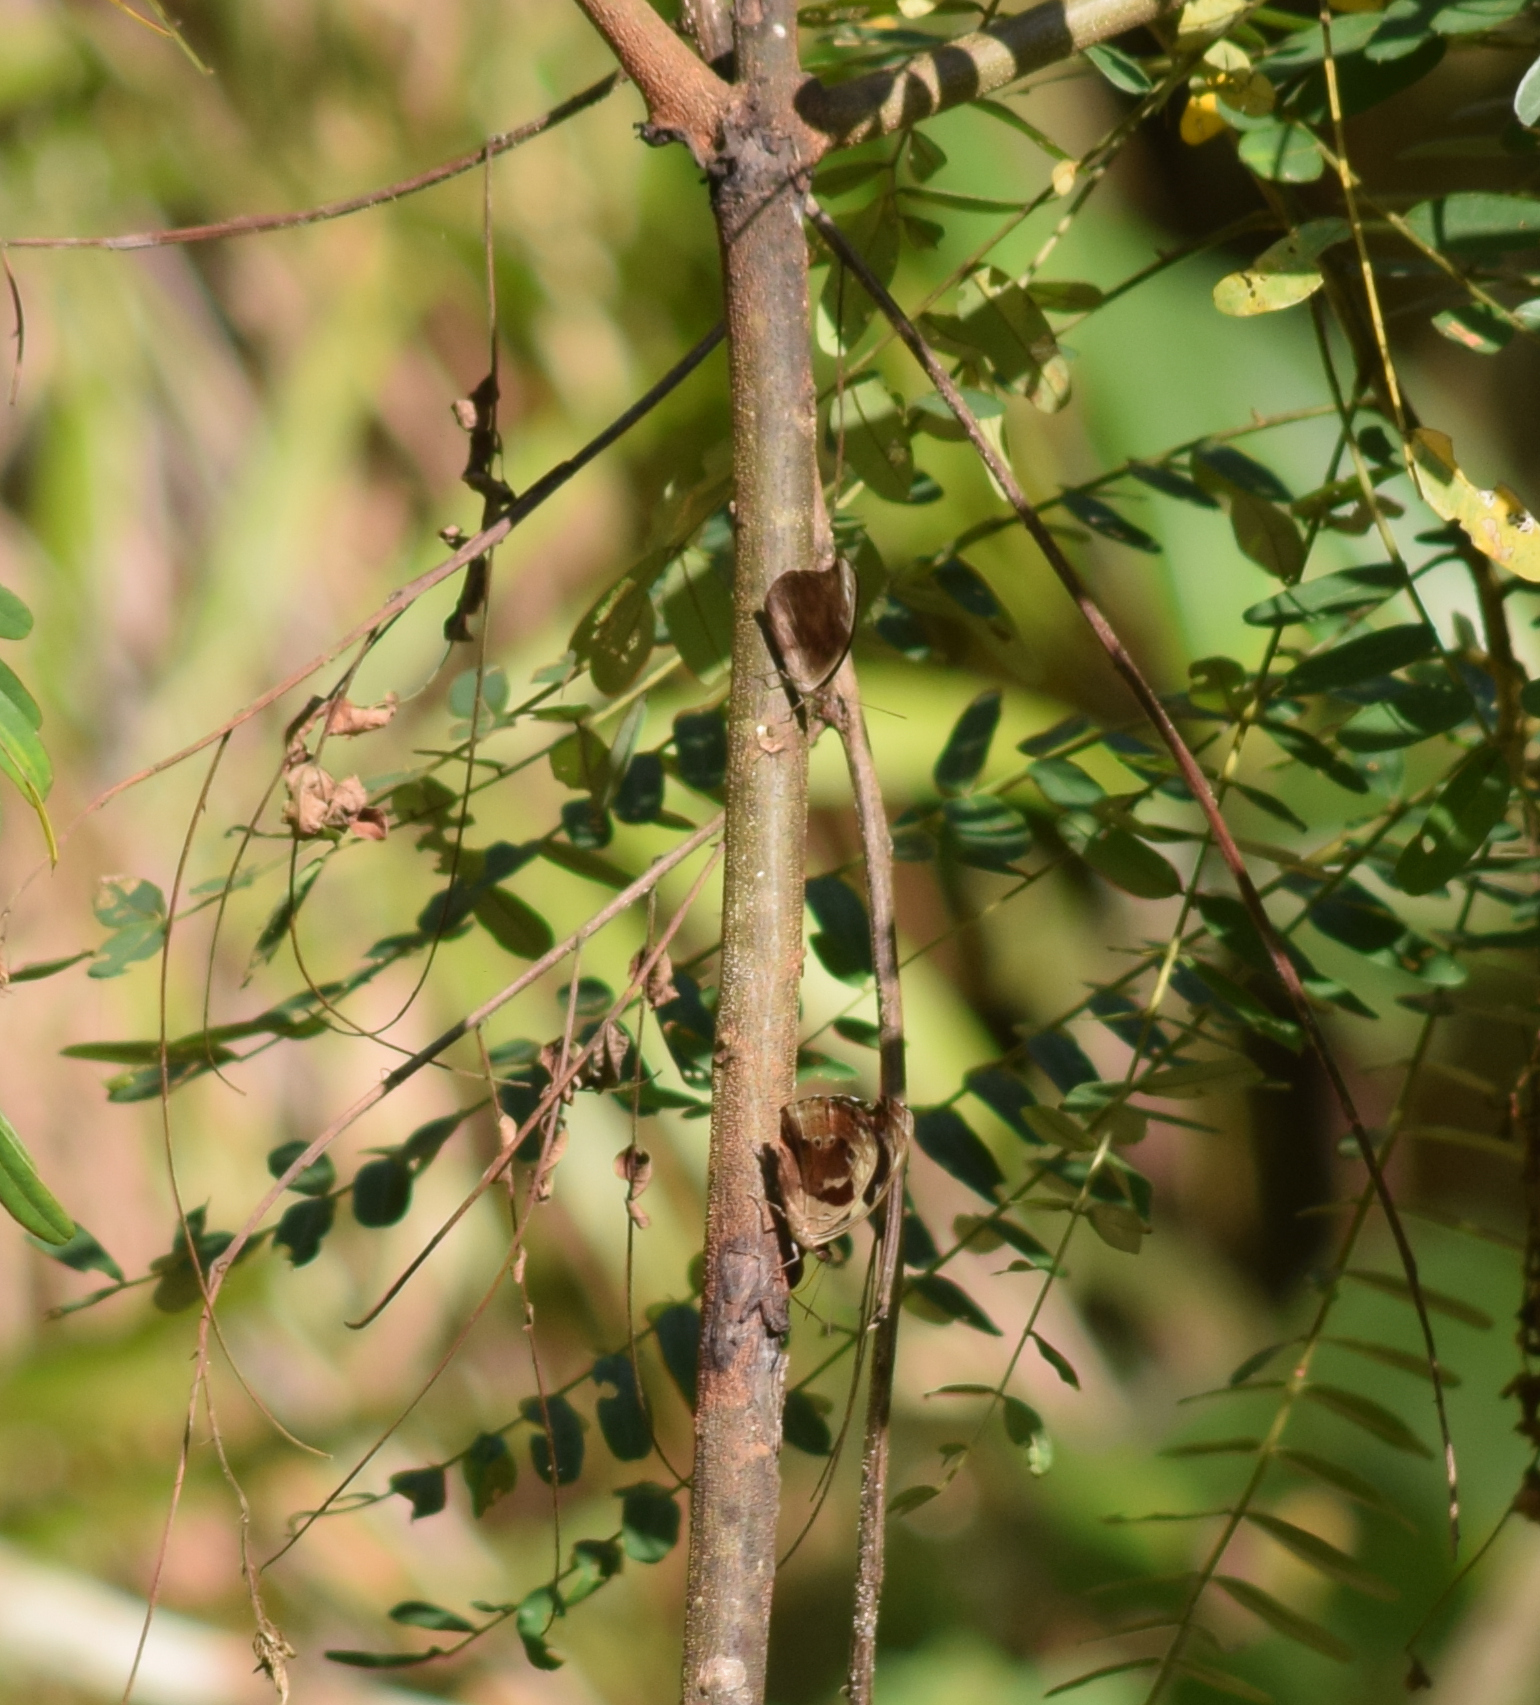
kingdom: Animalia
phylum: Arthropoda
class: Insecta
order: Lepidoptera
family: Nymphalidae
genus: Catonephele
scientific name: Catonephele numilia
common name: Blue-frosted banner
